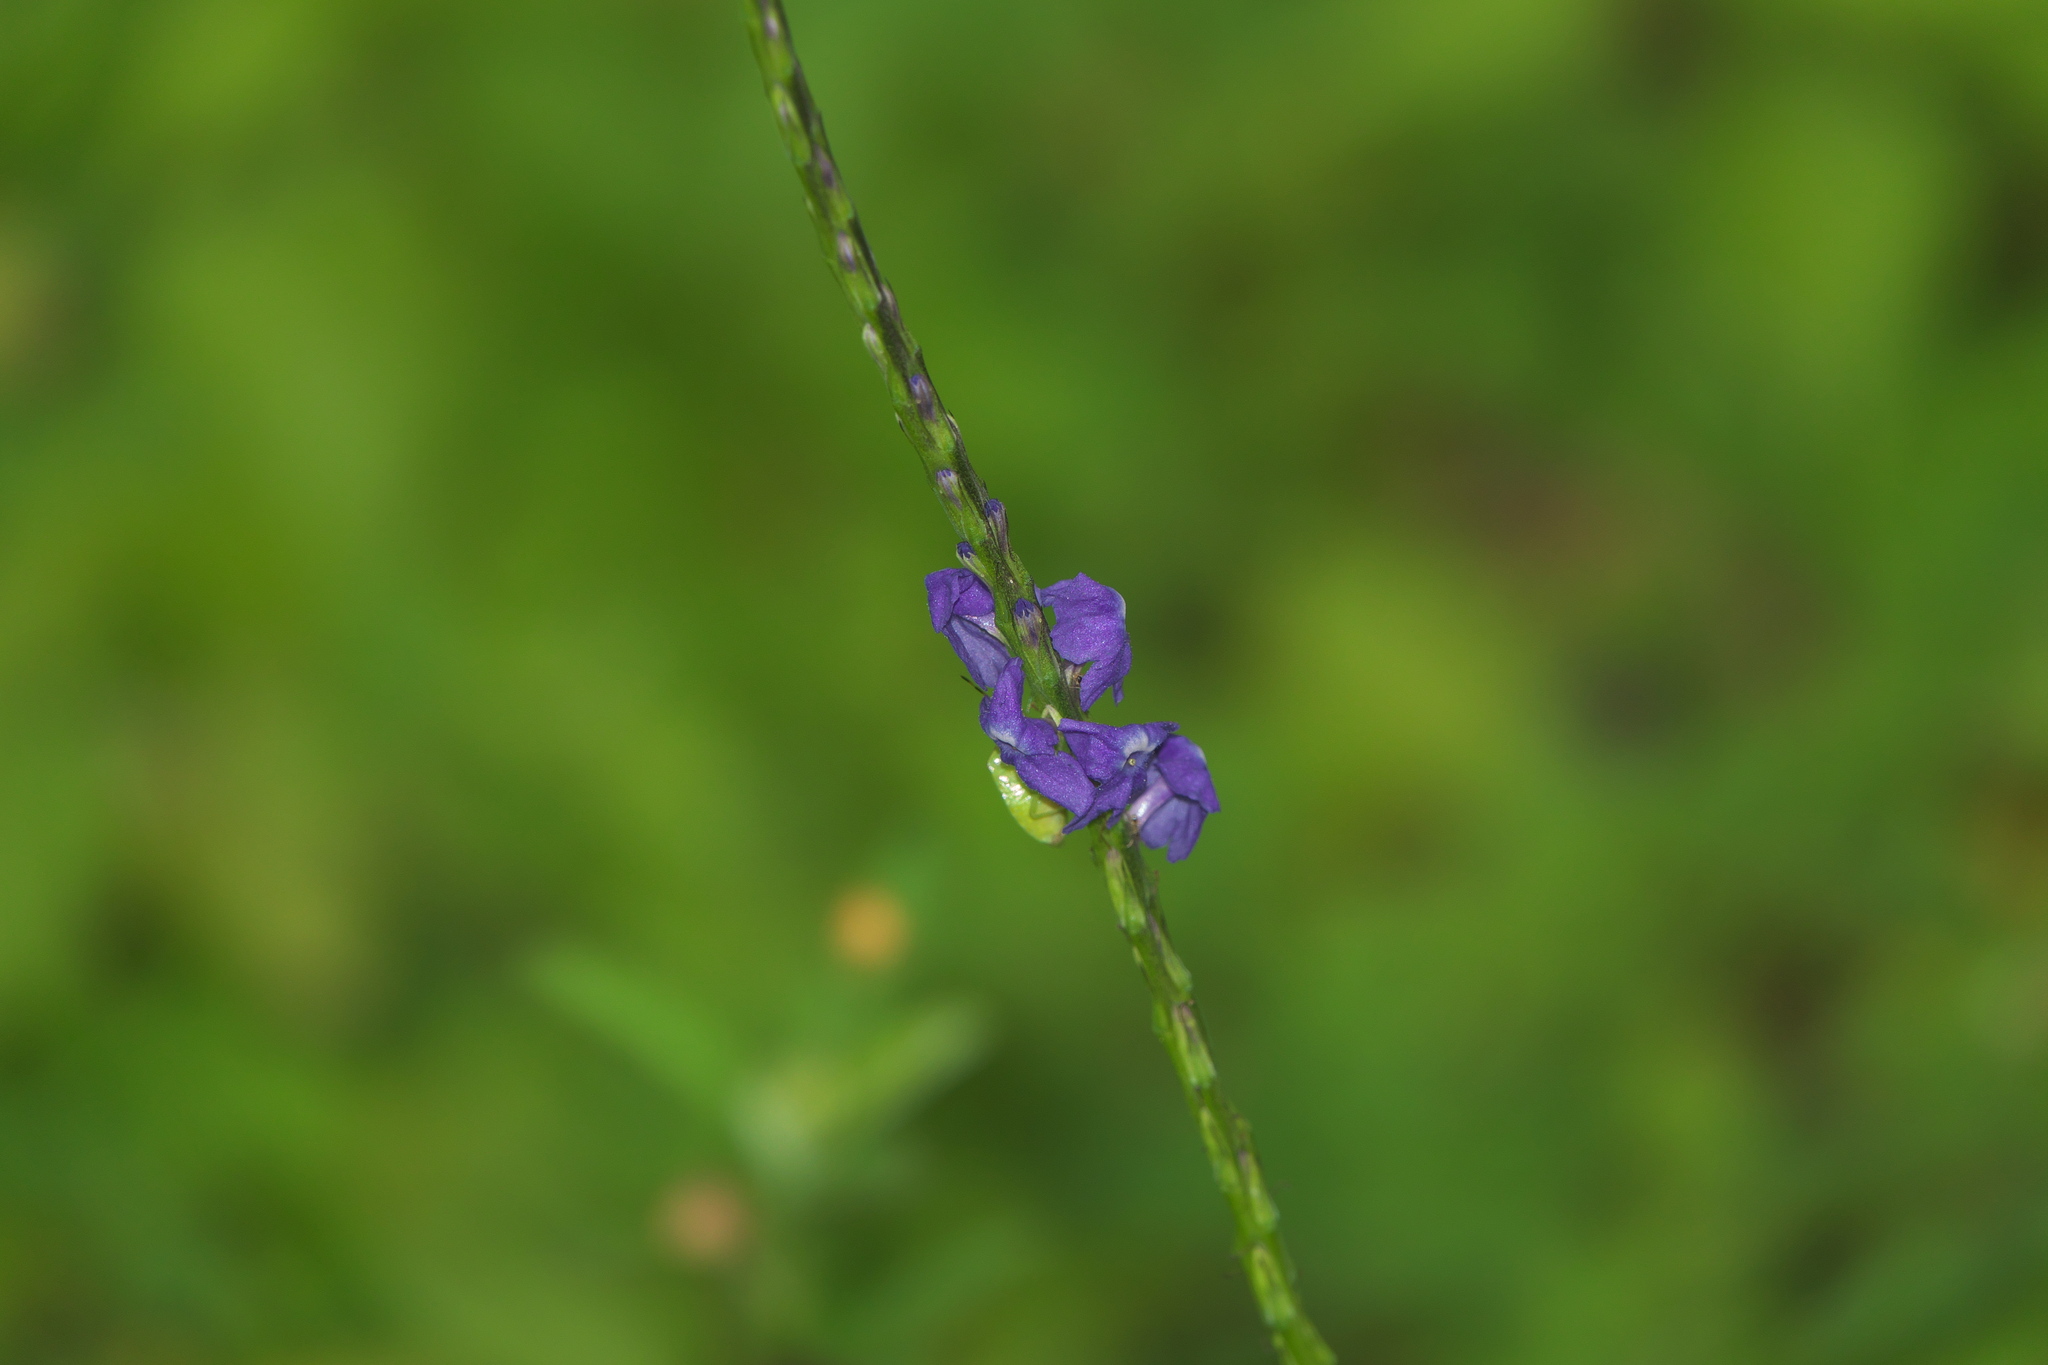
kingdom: Plantae
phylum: Tracheophyta
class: Magnoliopsida
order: Lamiales
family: Verbenaceae
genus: Stachytarpheta
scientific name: Stachytarpheta cayennensis
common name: Cayenne porterweed
